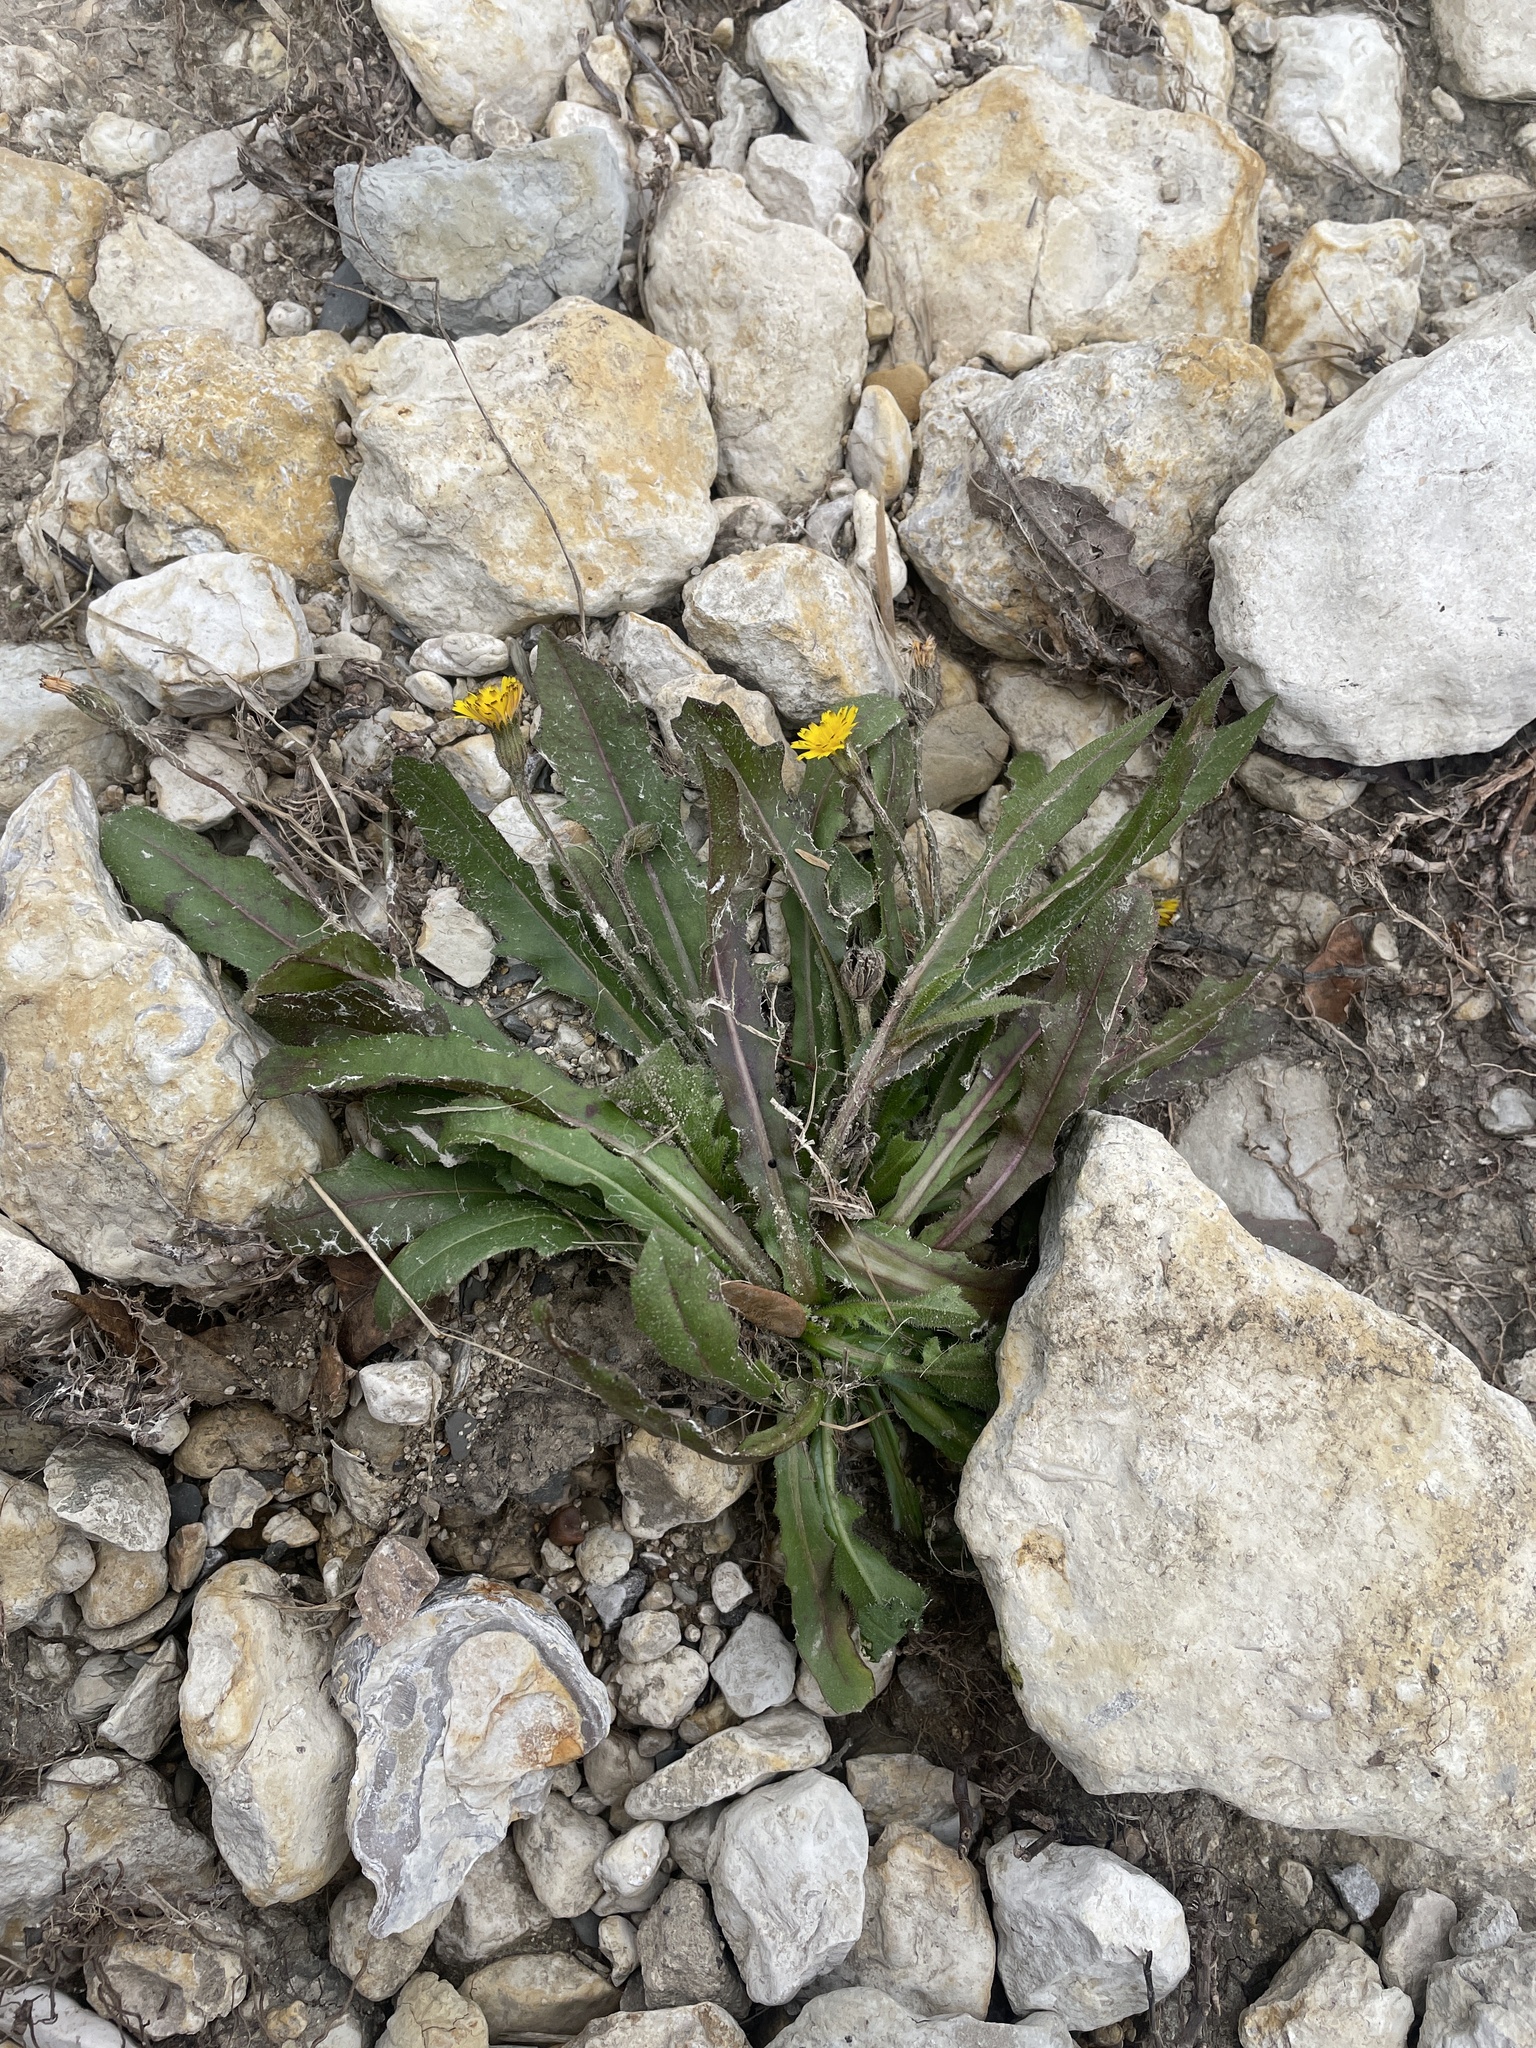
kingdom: Plantae
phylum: Tracheophyta
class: Magnoliopsida
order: Asterales
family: Asteraceae
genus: Hedypnois
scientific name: Hedypnois rhagadioloides
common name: Cretan weed
